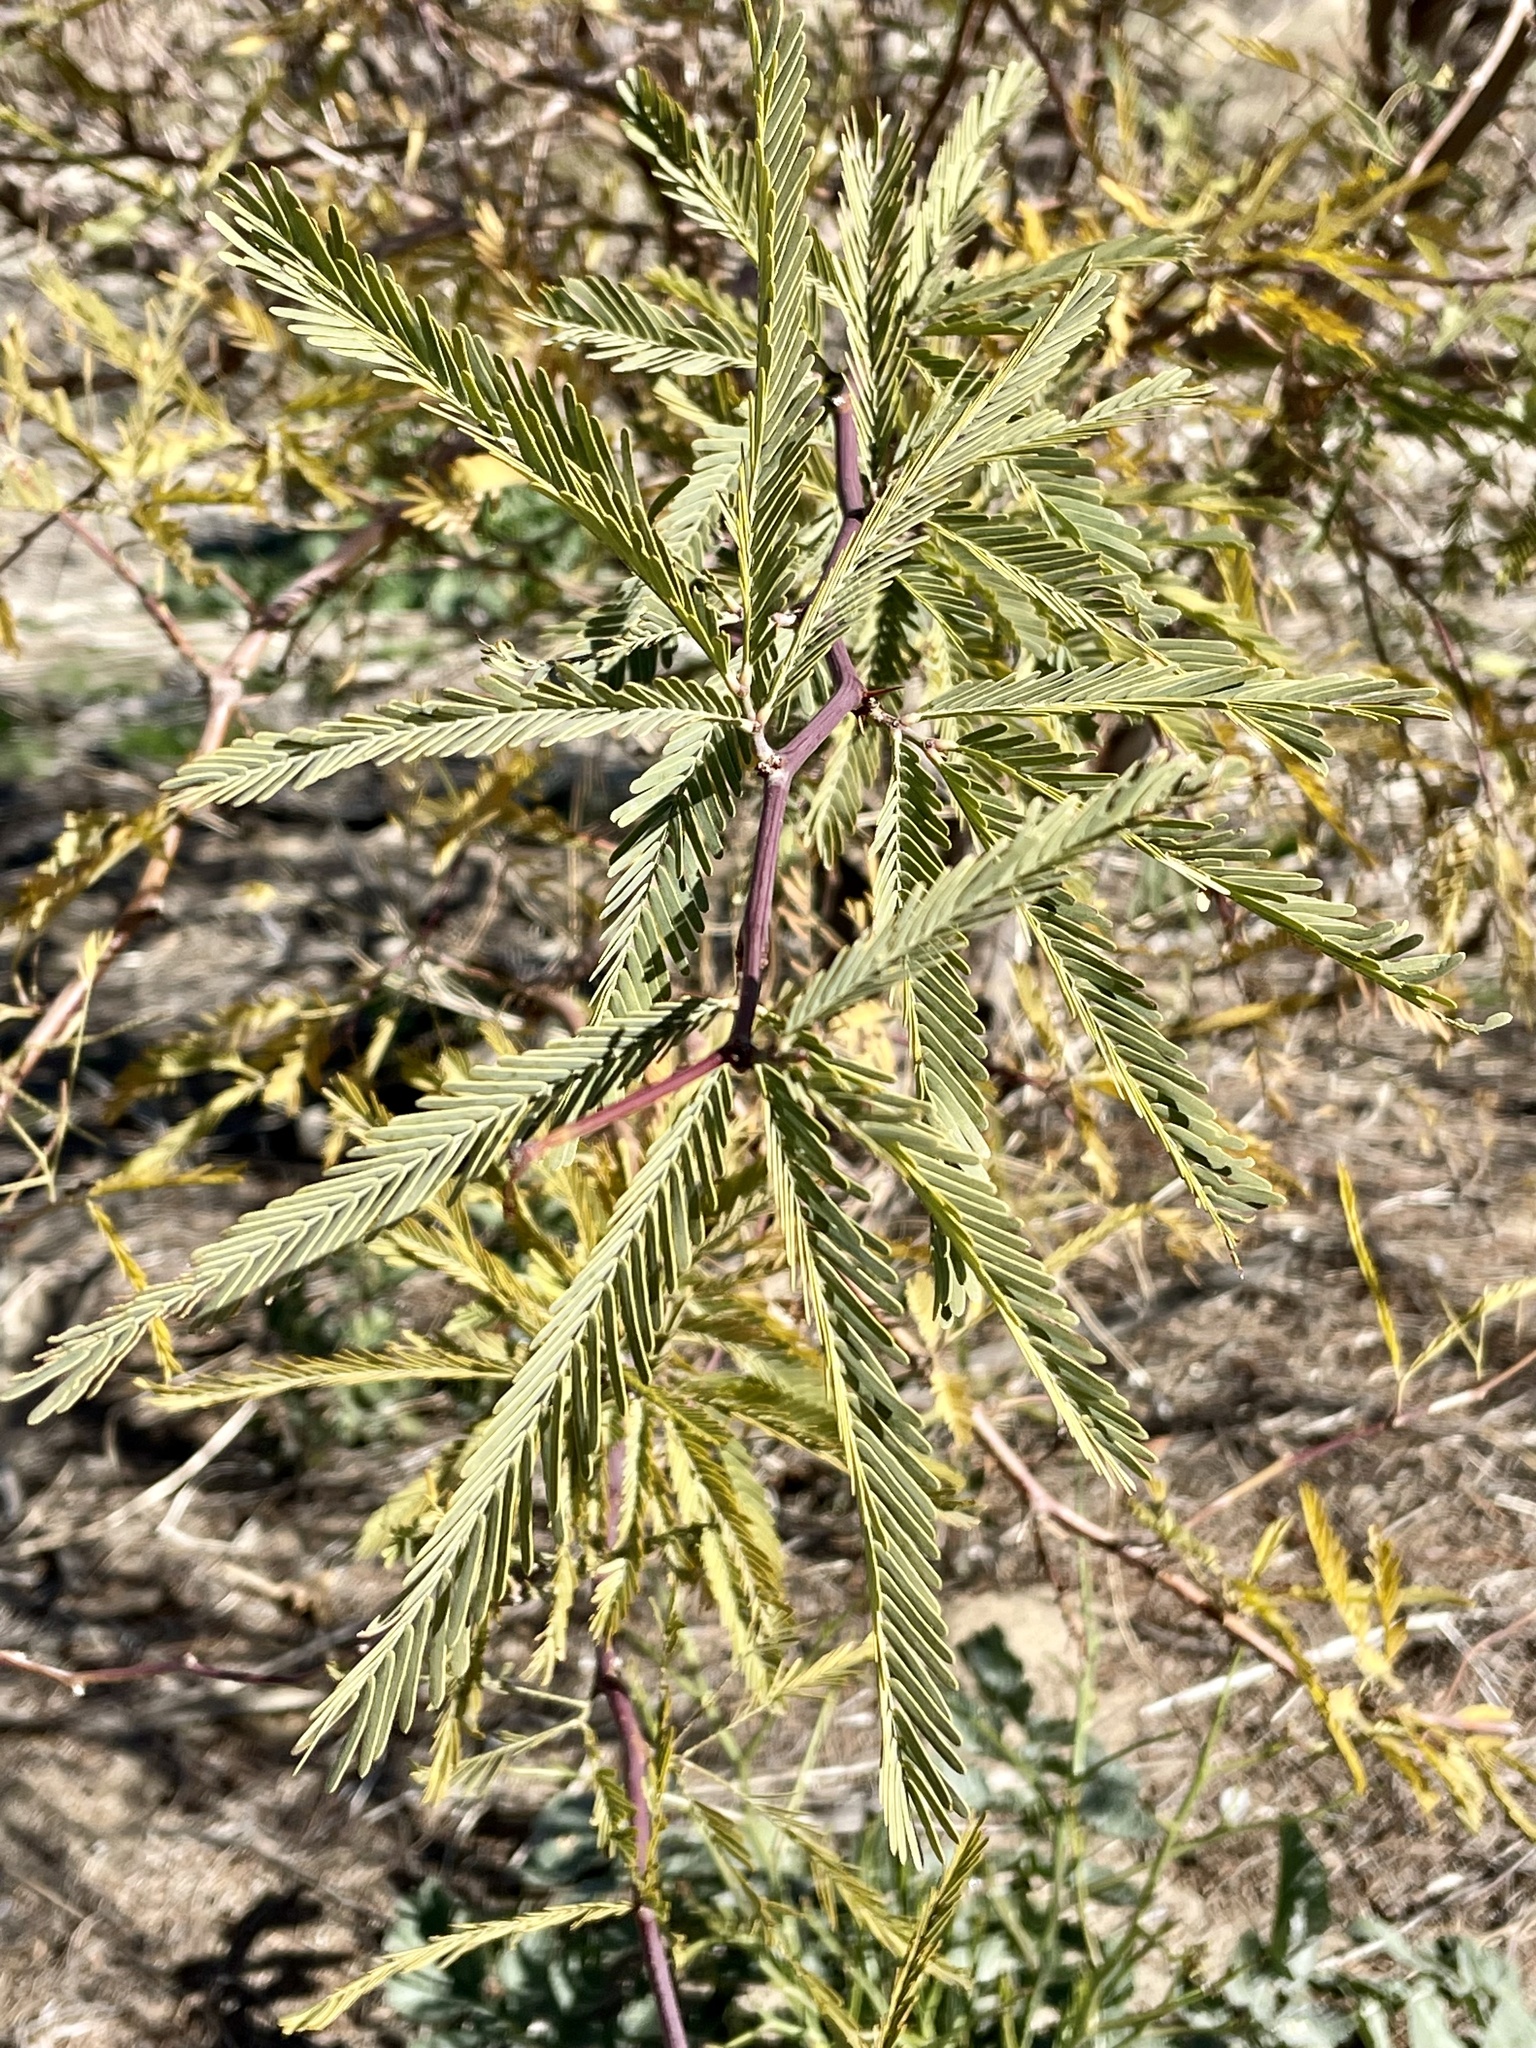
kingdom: Plantae
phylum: Tracheophyta
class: Magnoliopsida
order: Fabales
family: Fabaceae
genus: Prosopis
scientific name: Prosopis alba
